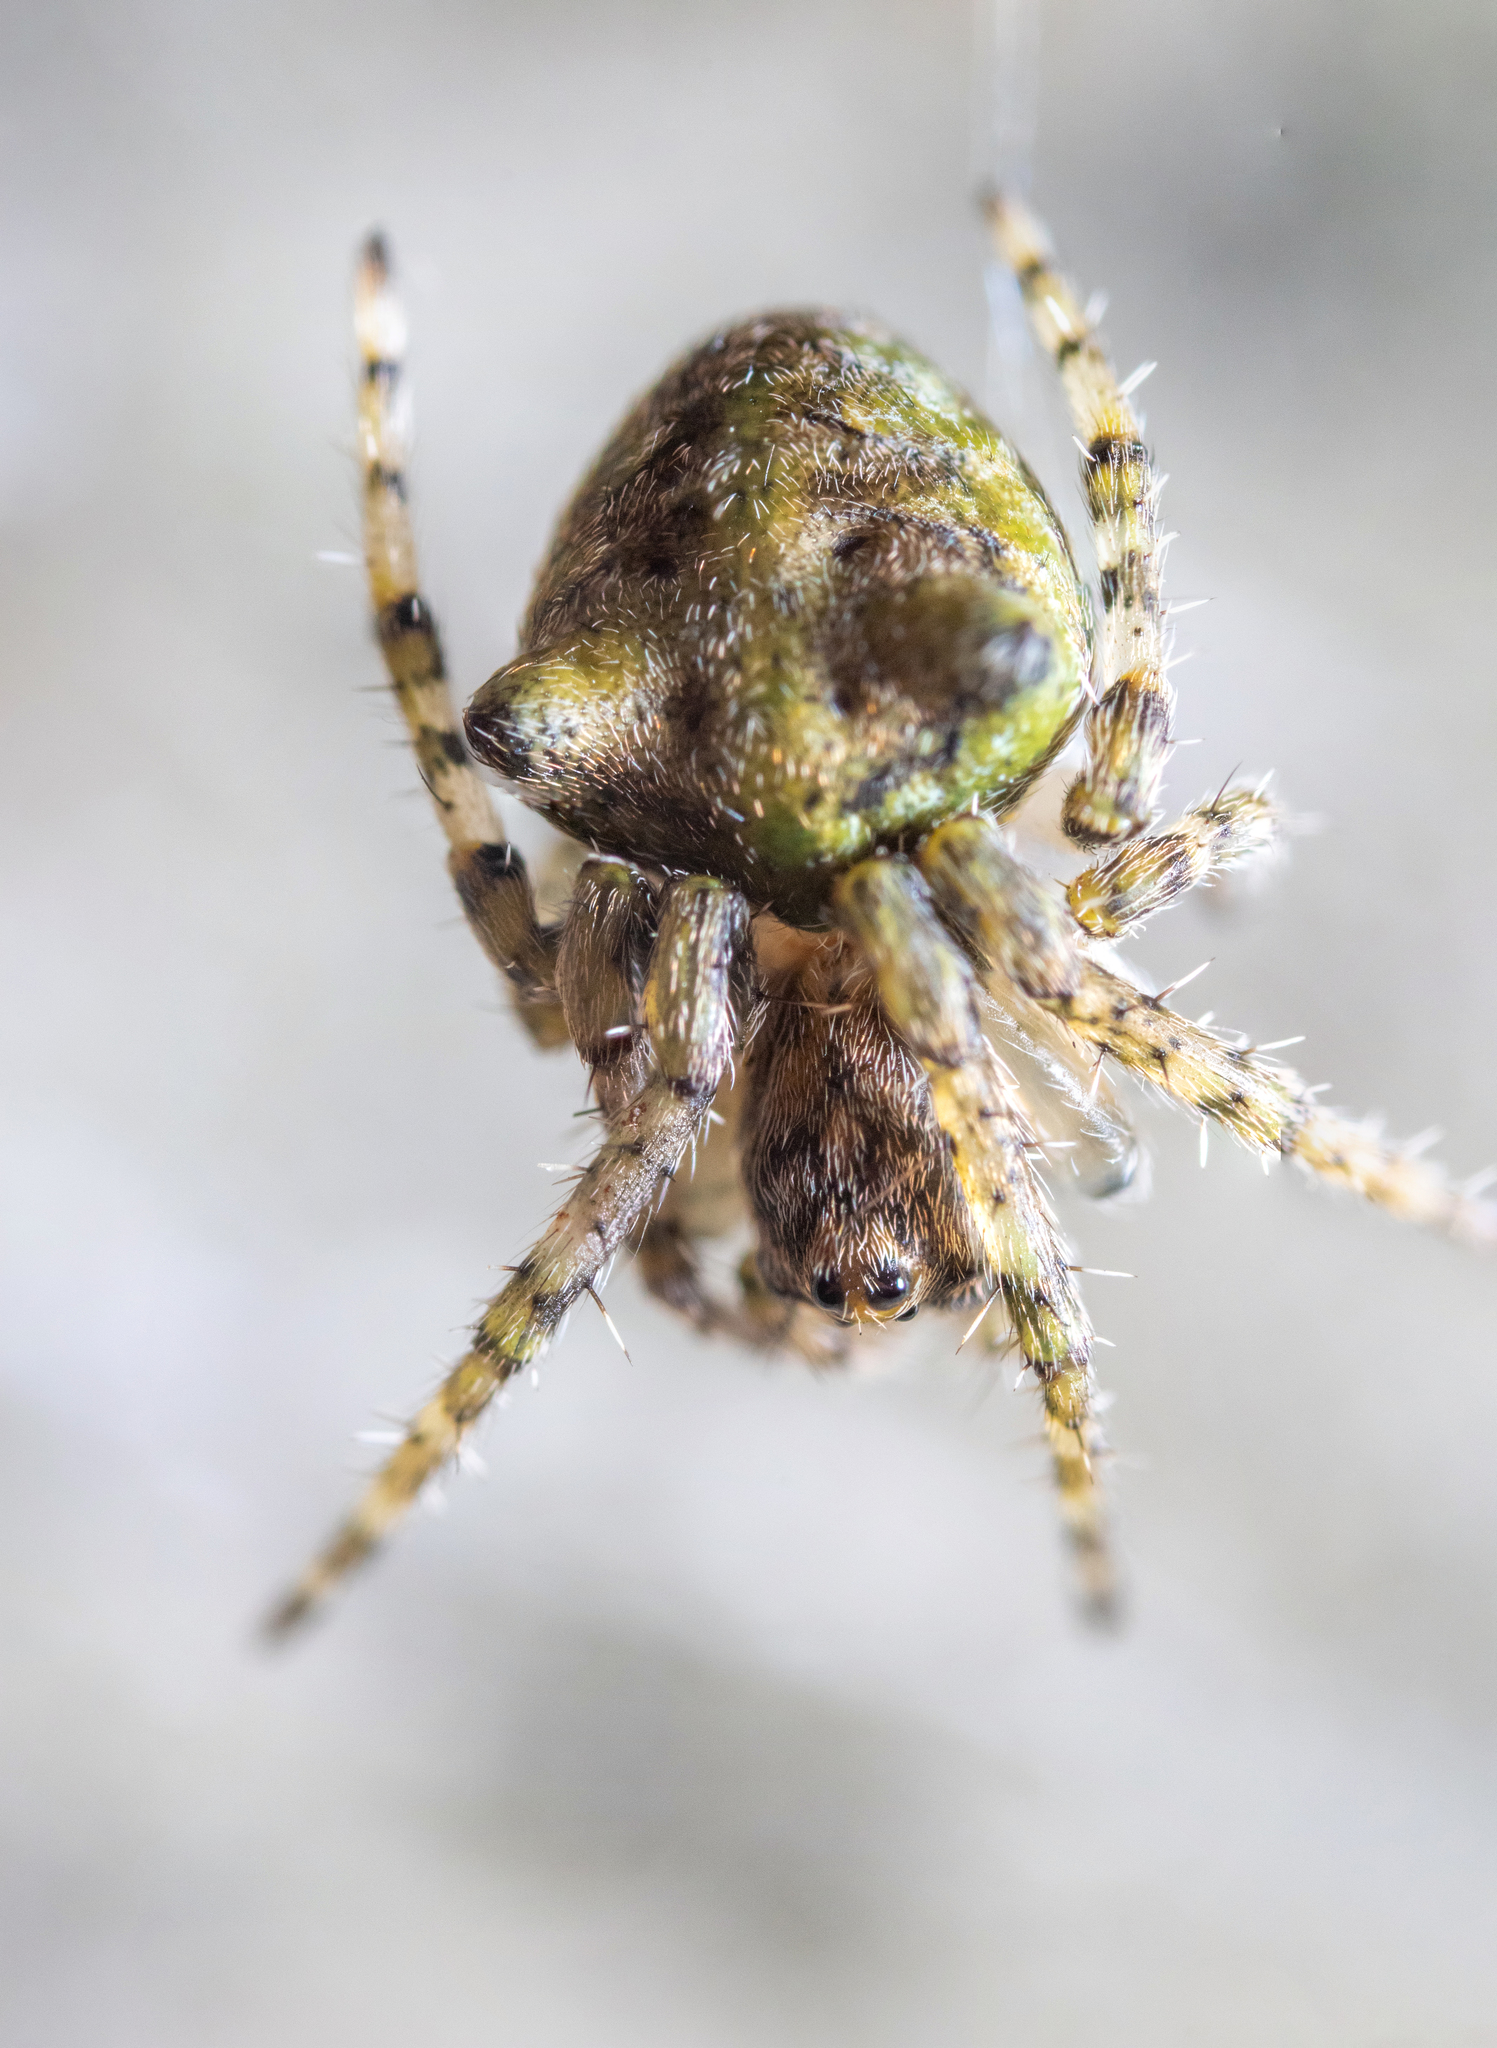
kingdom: Animalia
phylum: Arthropoda
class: Arachnida
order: Araneae
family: Araneidae
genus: Gibbaranea
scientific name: Gibbaranea gibbosa
